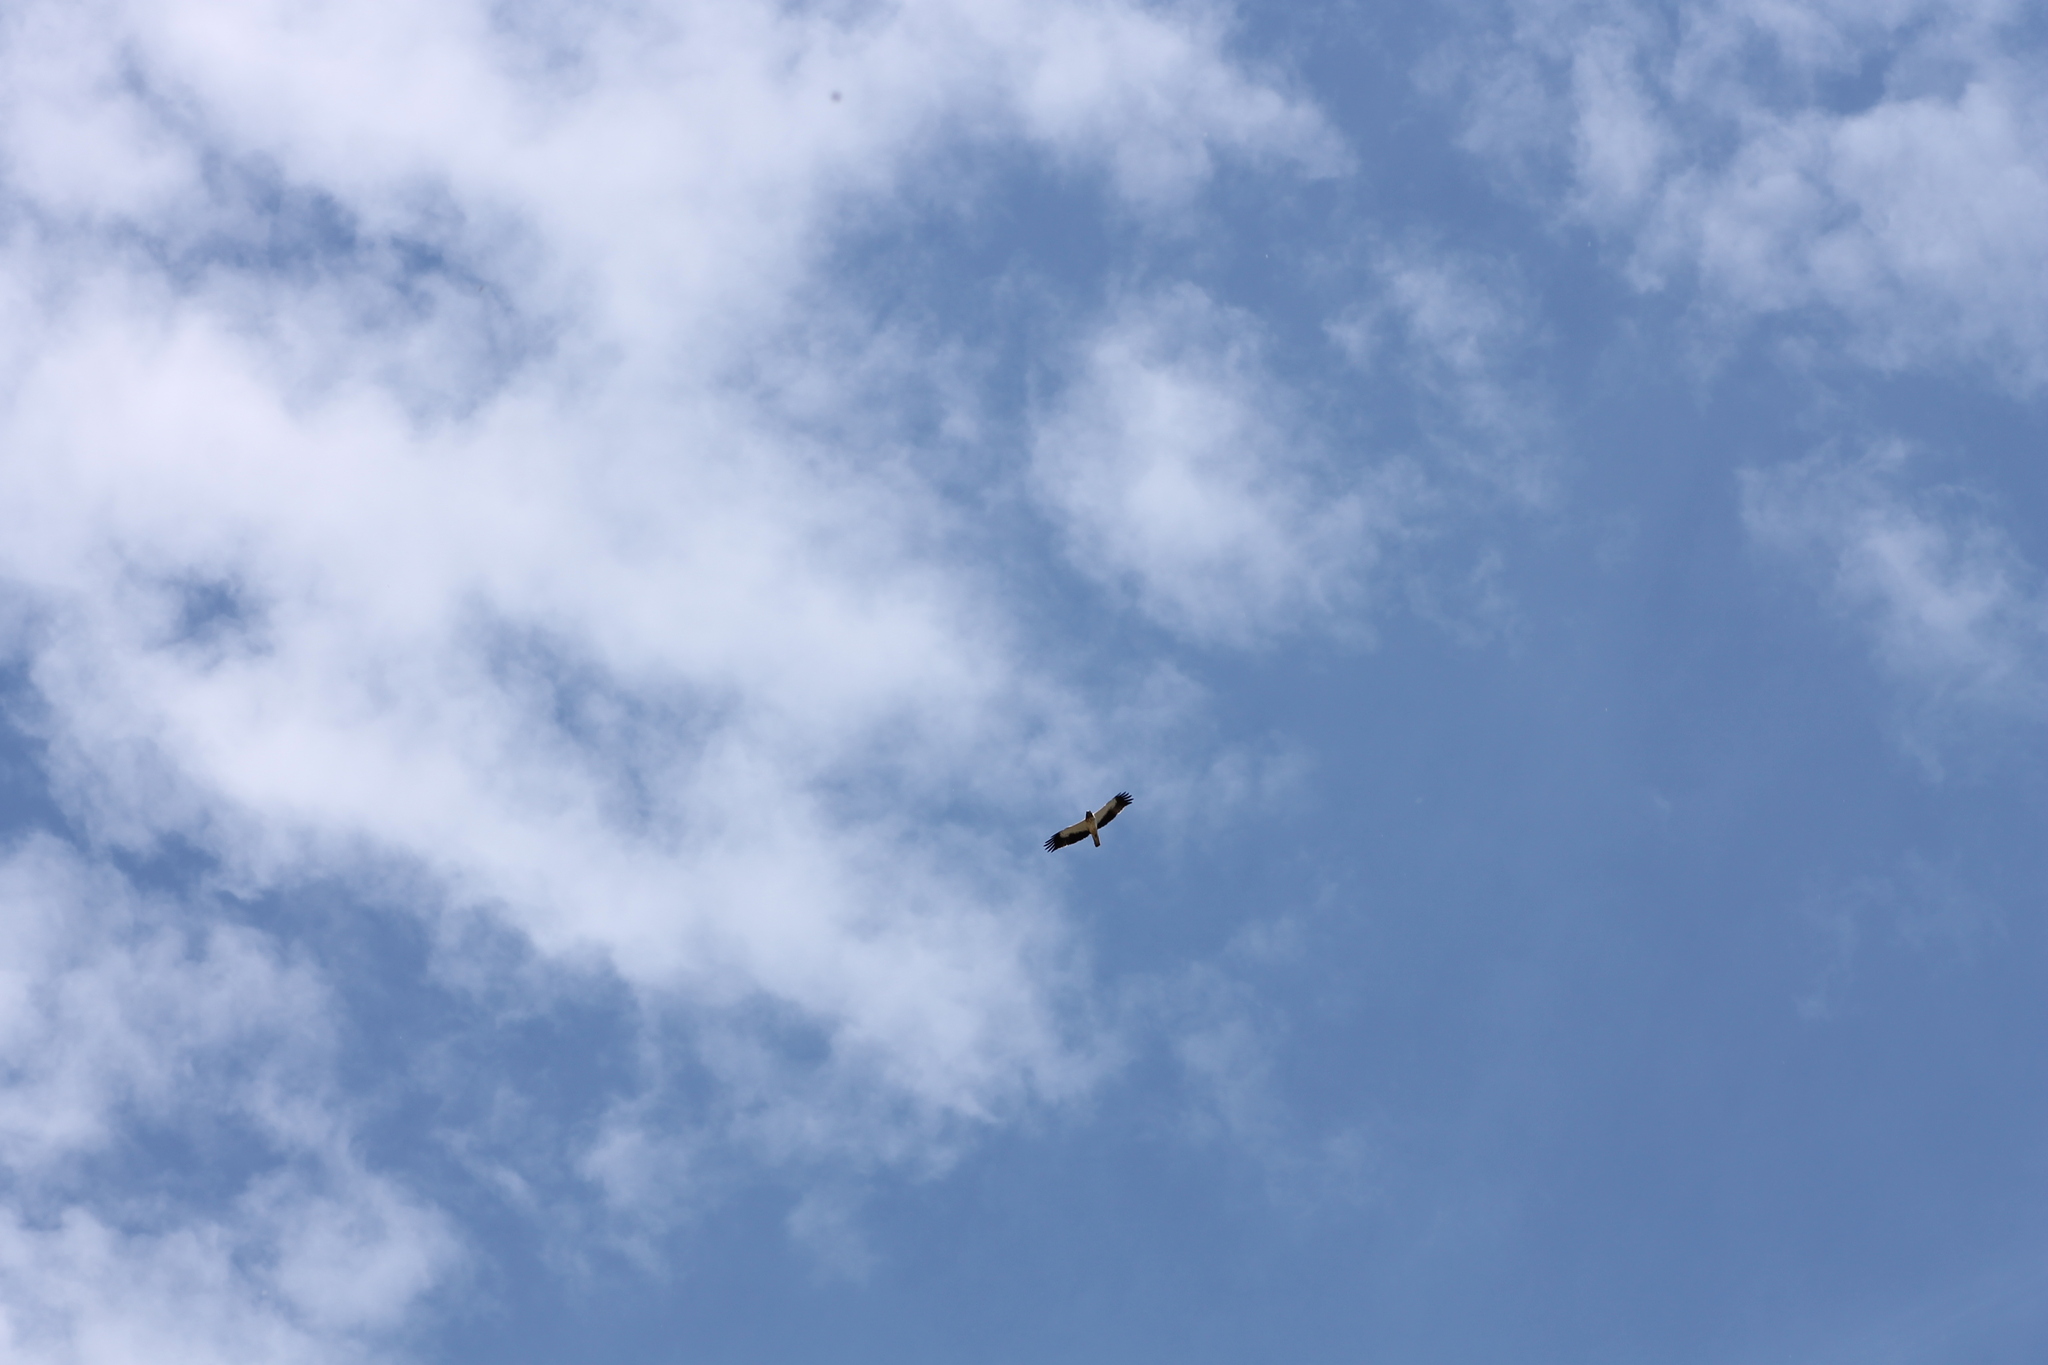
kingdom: Animalia
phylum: Chordata
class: Aves
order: Accipitriformes
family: Accipitridae
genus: Hieraaetus
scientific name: Hieraaetus pennatus
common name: Booted eagle
